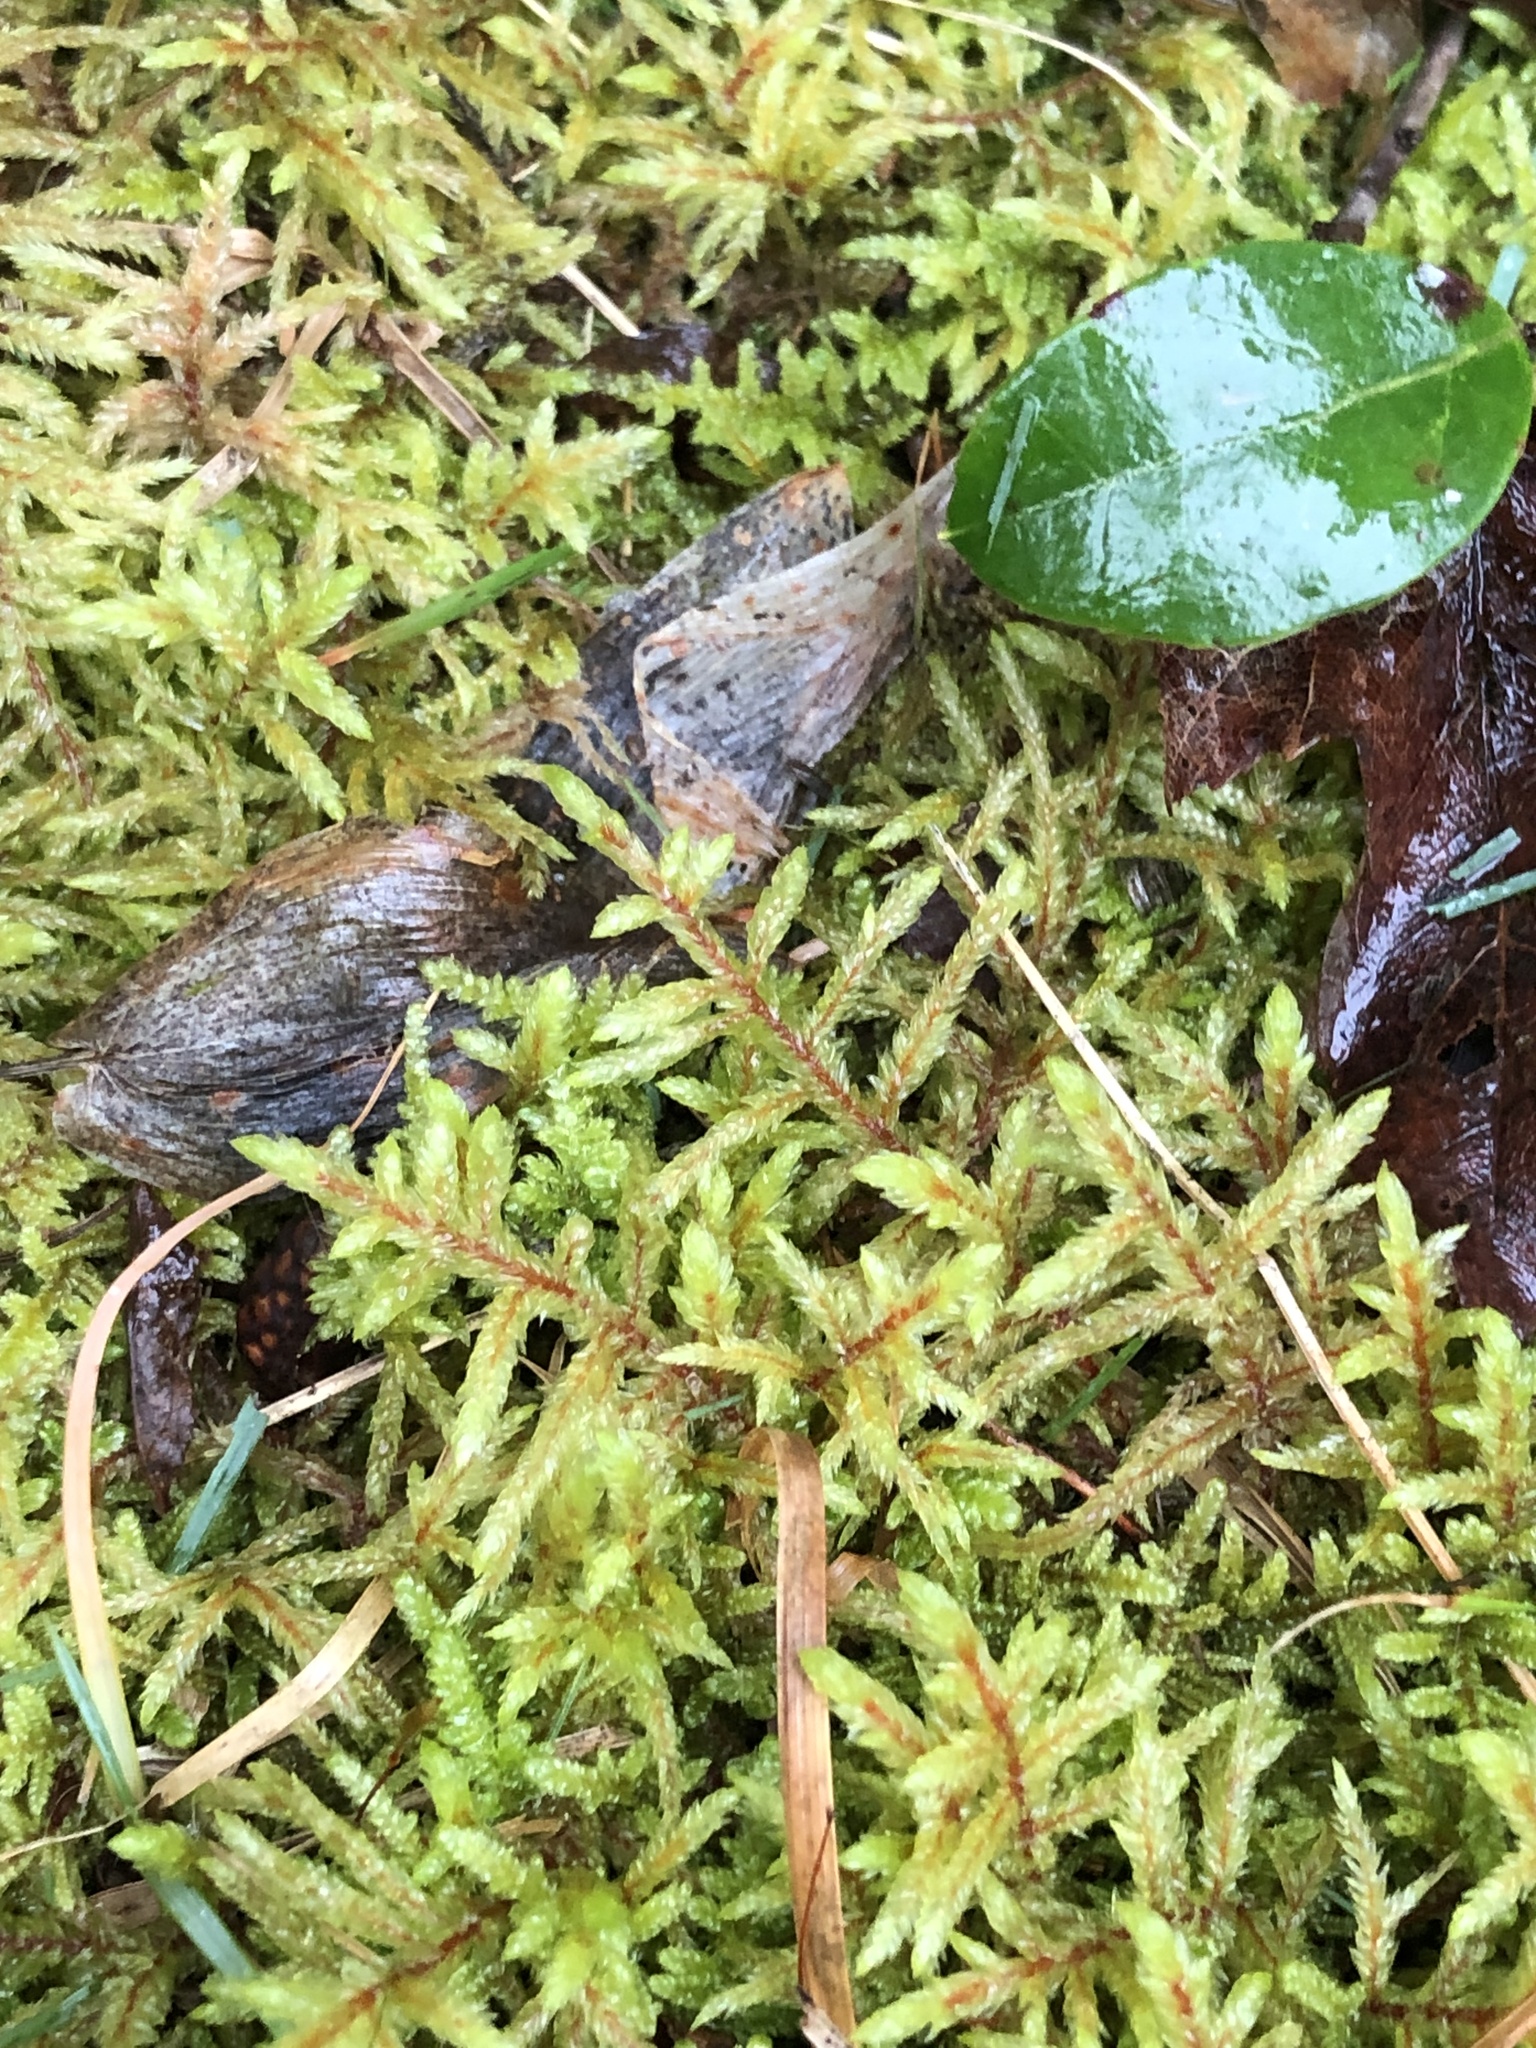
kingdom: Plantae
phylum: Bryophyta
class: Bryopsida
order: Hypnales
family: Hylocomiaceae
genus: Pleurozium
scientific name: Pleurozium schreberi
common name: Red-stemmed feather moss
